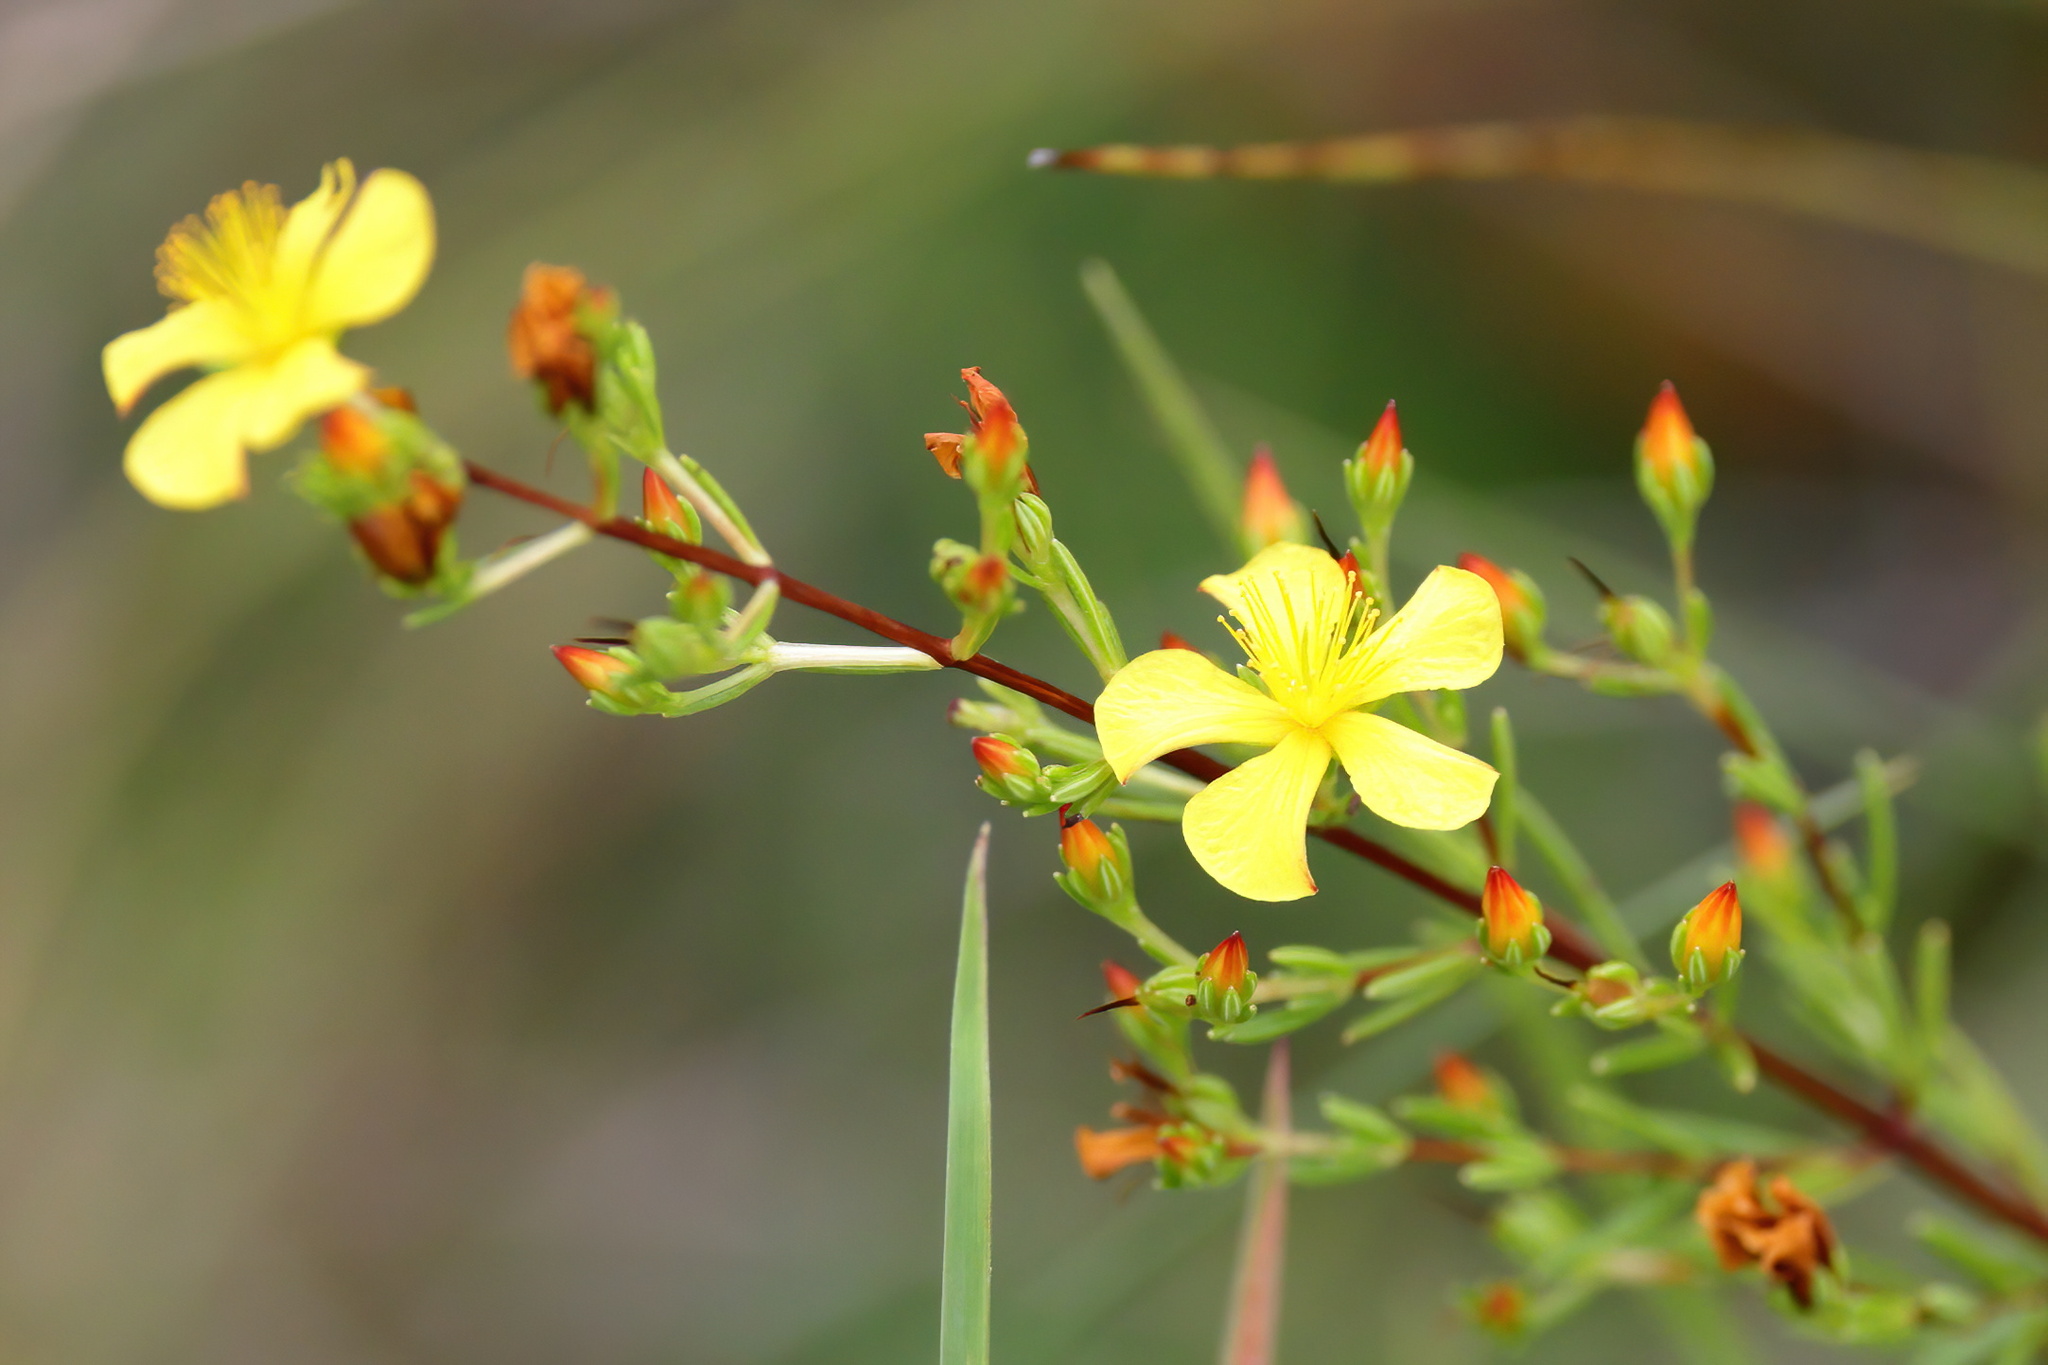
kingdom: Plantae
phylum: Tracheophyta
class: Magnoliopsida
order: Malpighiales
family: Hypericaceae
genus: Hypericum
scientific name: Hypericum brachyphyllum
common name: Coastal plain st. john's-wort
